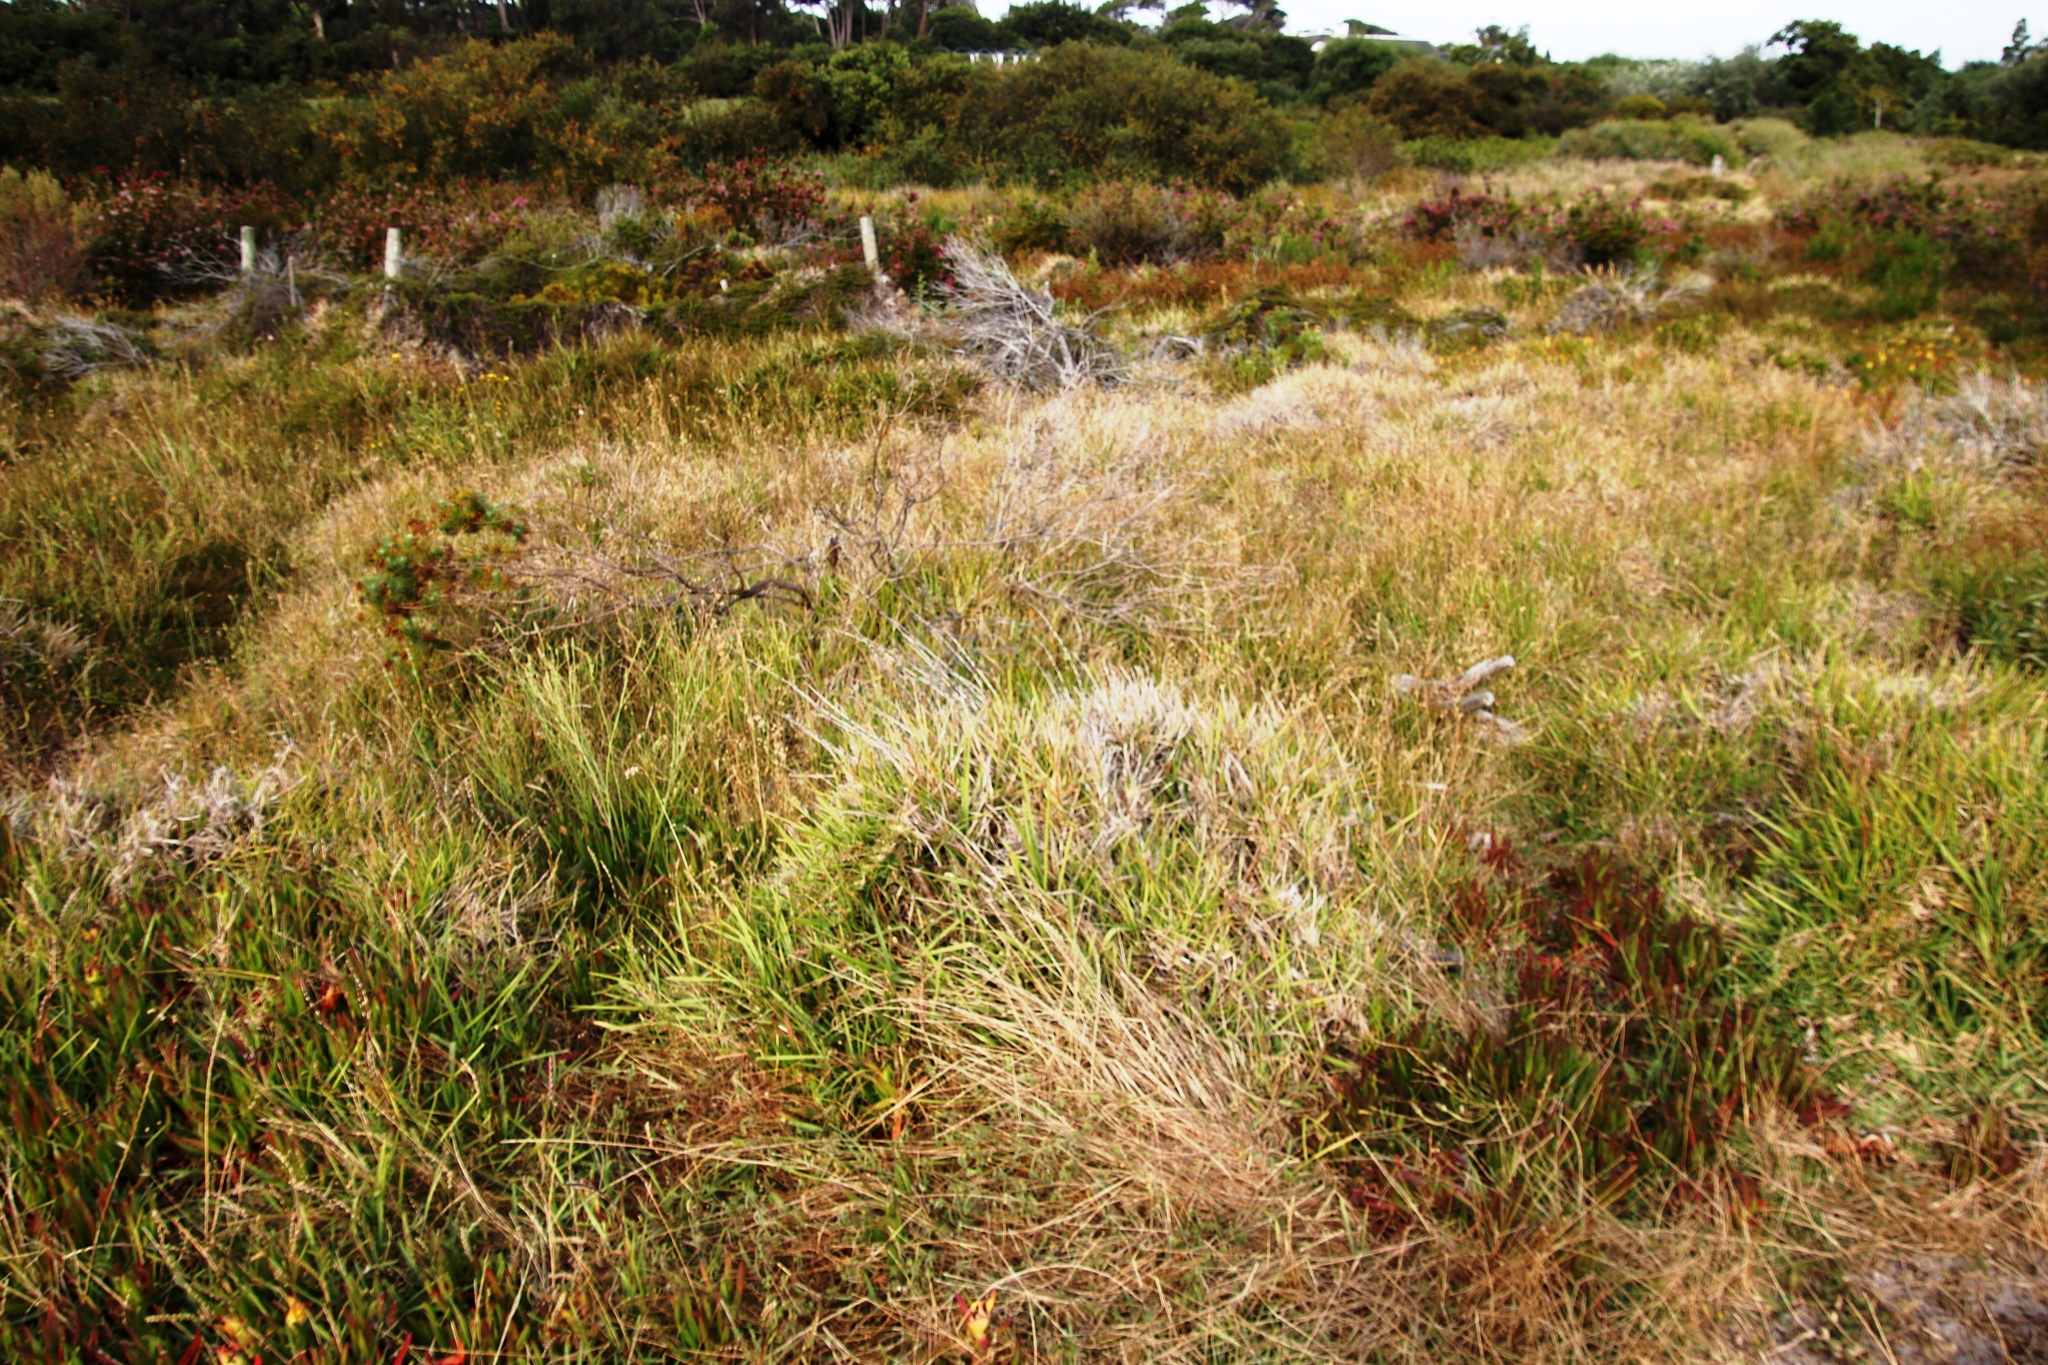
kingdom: Plantae
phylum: Tracheophyta
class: Liliopsida
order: Poales
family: Poaceae
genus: Stenotaphrum
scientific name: Stenotaphrum secundatum
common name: St. augustine grass
